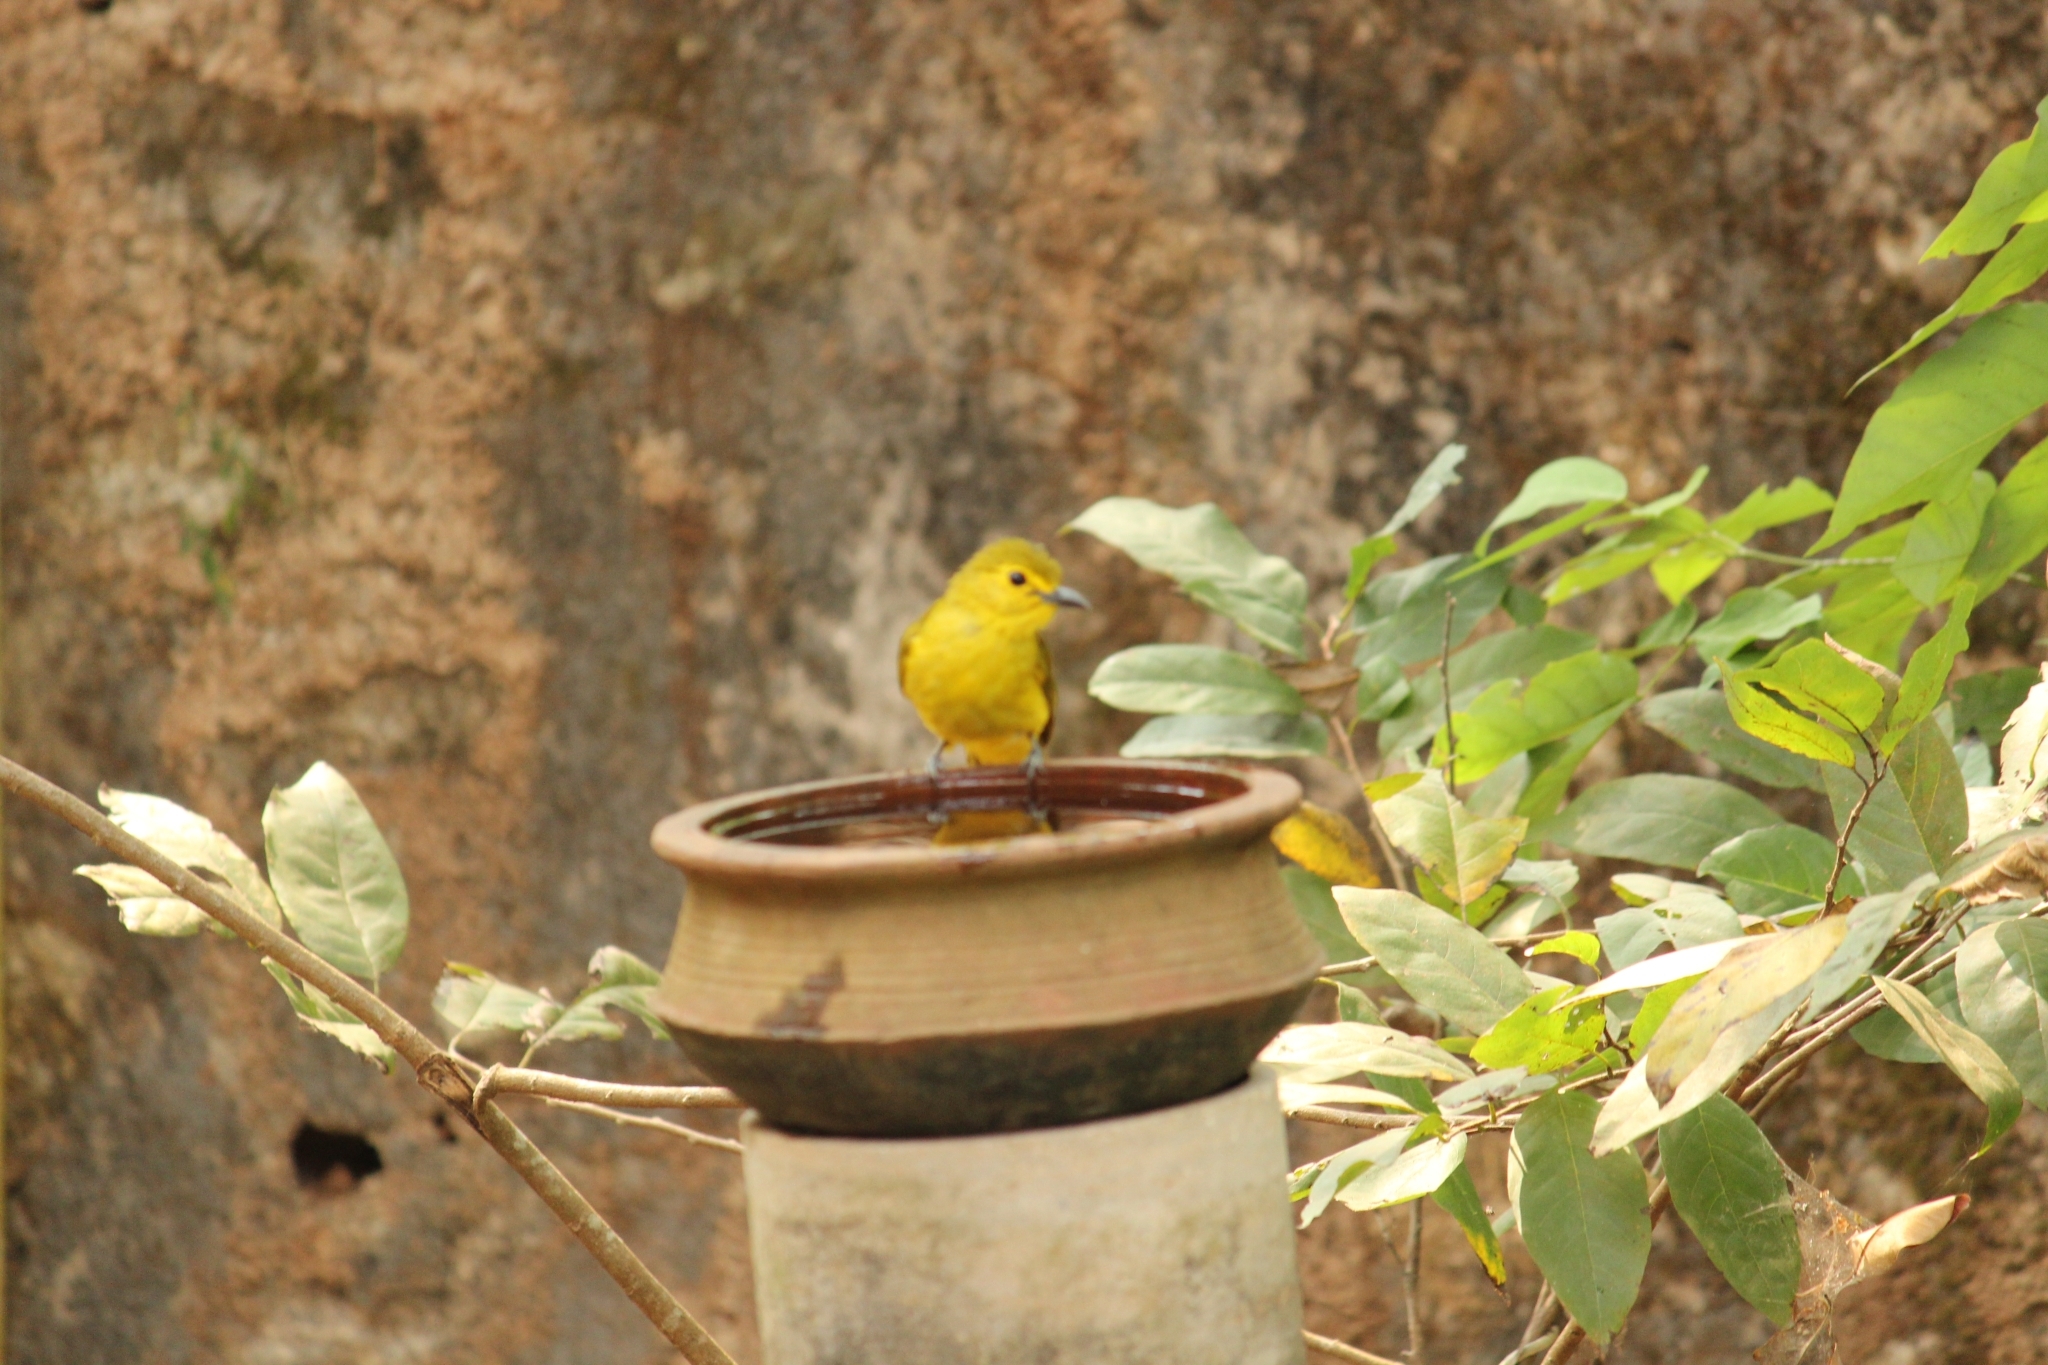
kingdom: Animalia
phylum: Chordata
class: Aves
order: Passeriformes
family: Pycnonotidae
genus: Acritillas
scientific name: Acritillas indica
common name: Yellow-browed bulbul
